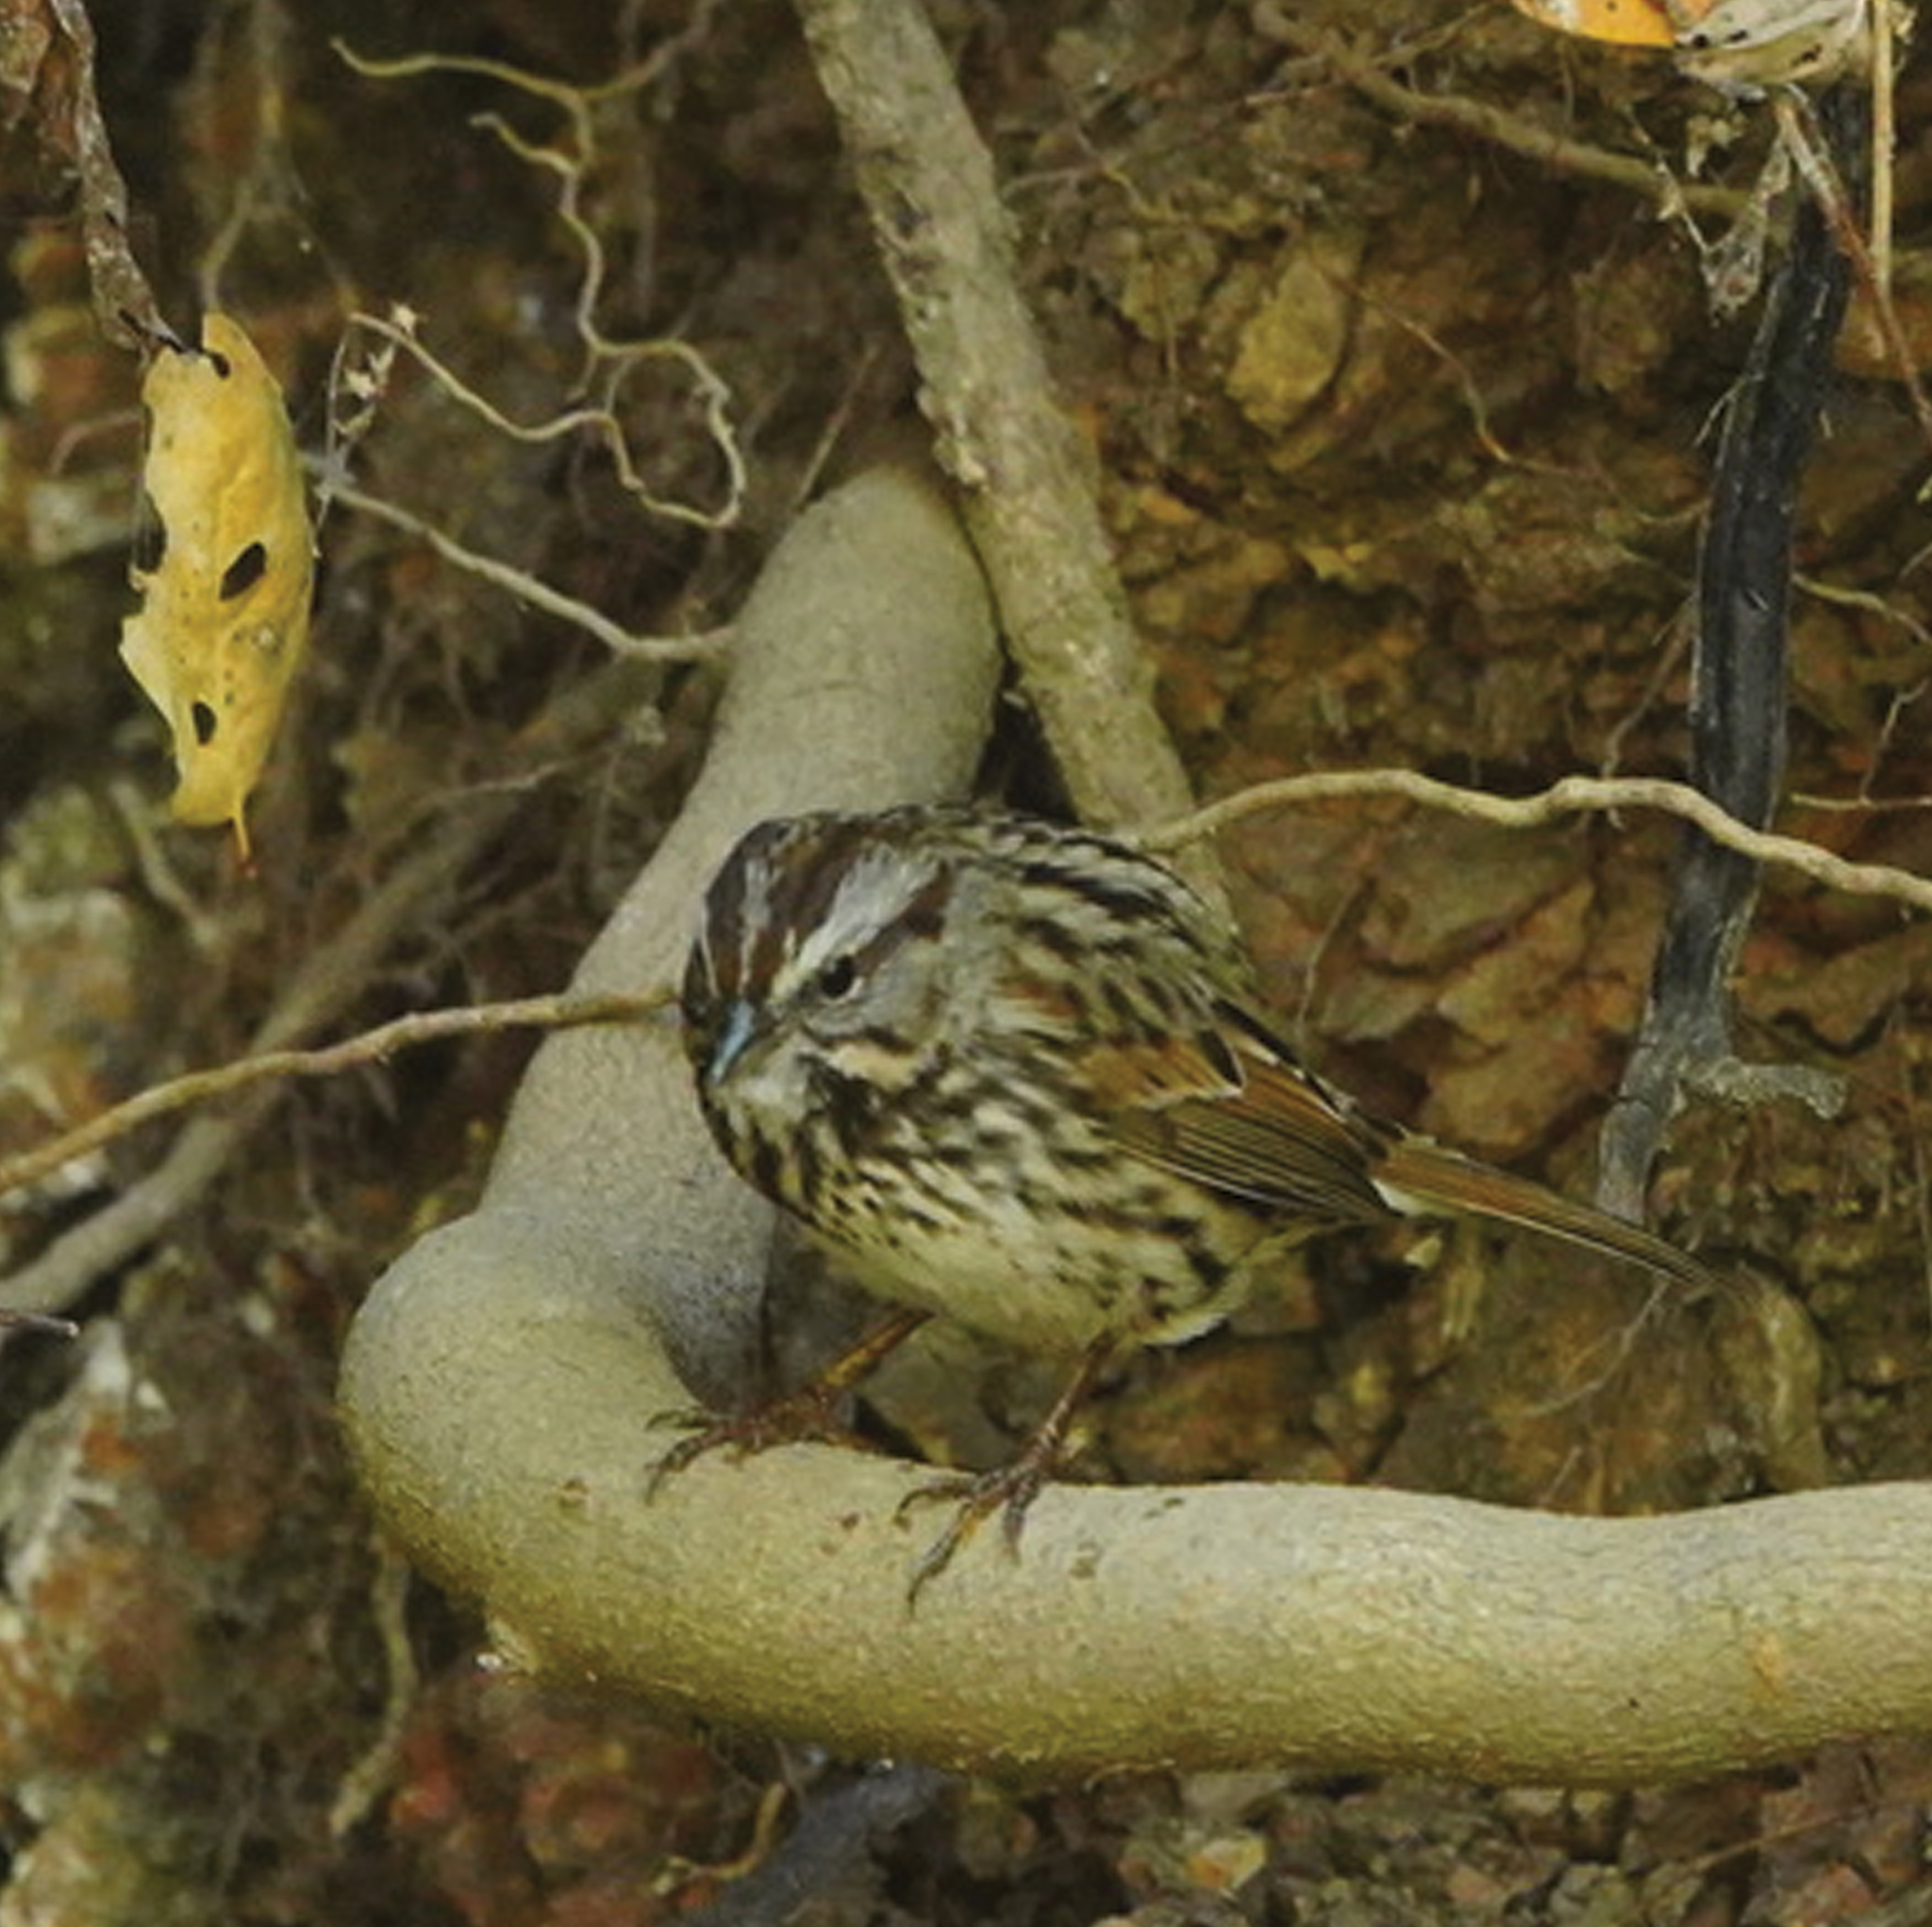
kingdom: Animalia
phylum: Chordata
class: Aves
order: Passeriformes
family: Passerellidae
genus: Melospiza
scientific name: Melospiza melodia
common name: Song sparrow
